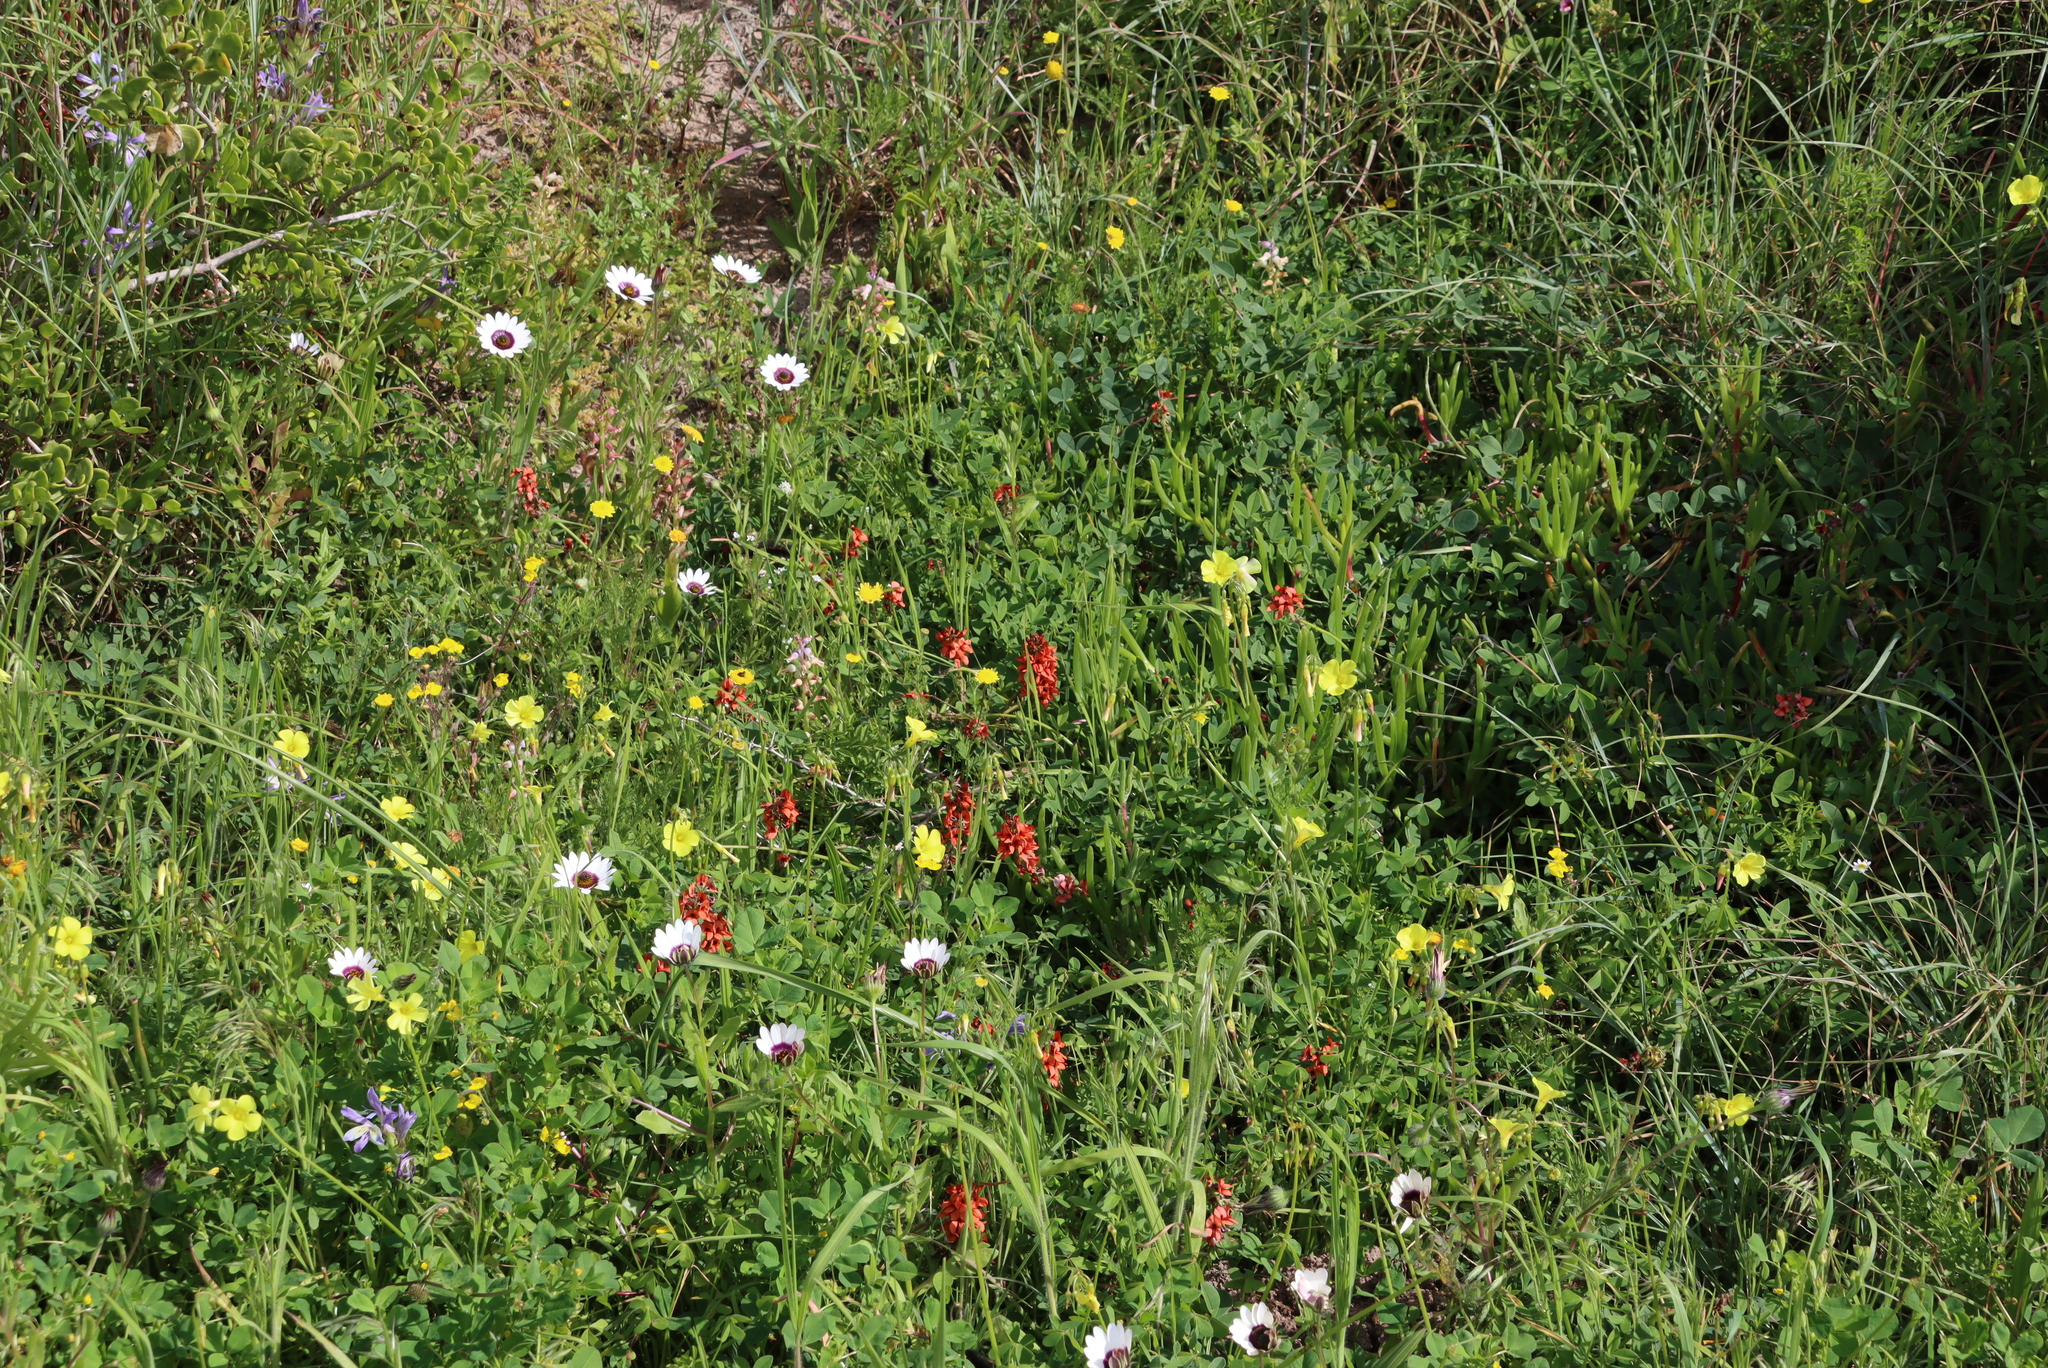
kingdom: Plantae
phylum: Tracheophyta
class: Magnoliopsida
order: Fabales
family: Fabaceae
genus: Indigofera
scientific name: Indigofera
